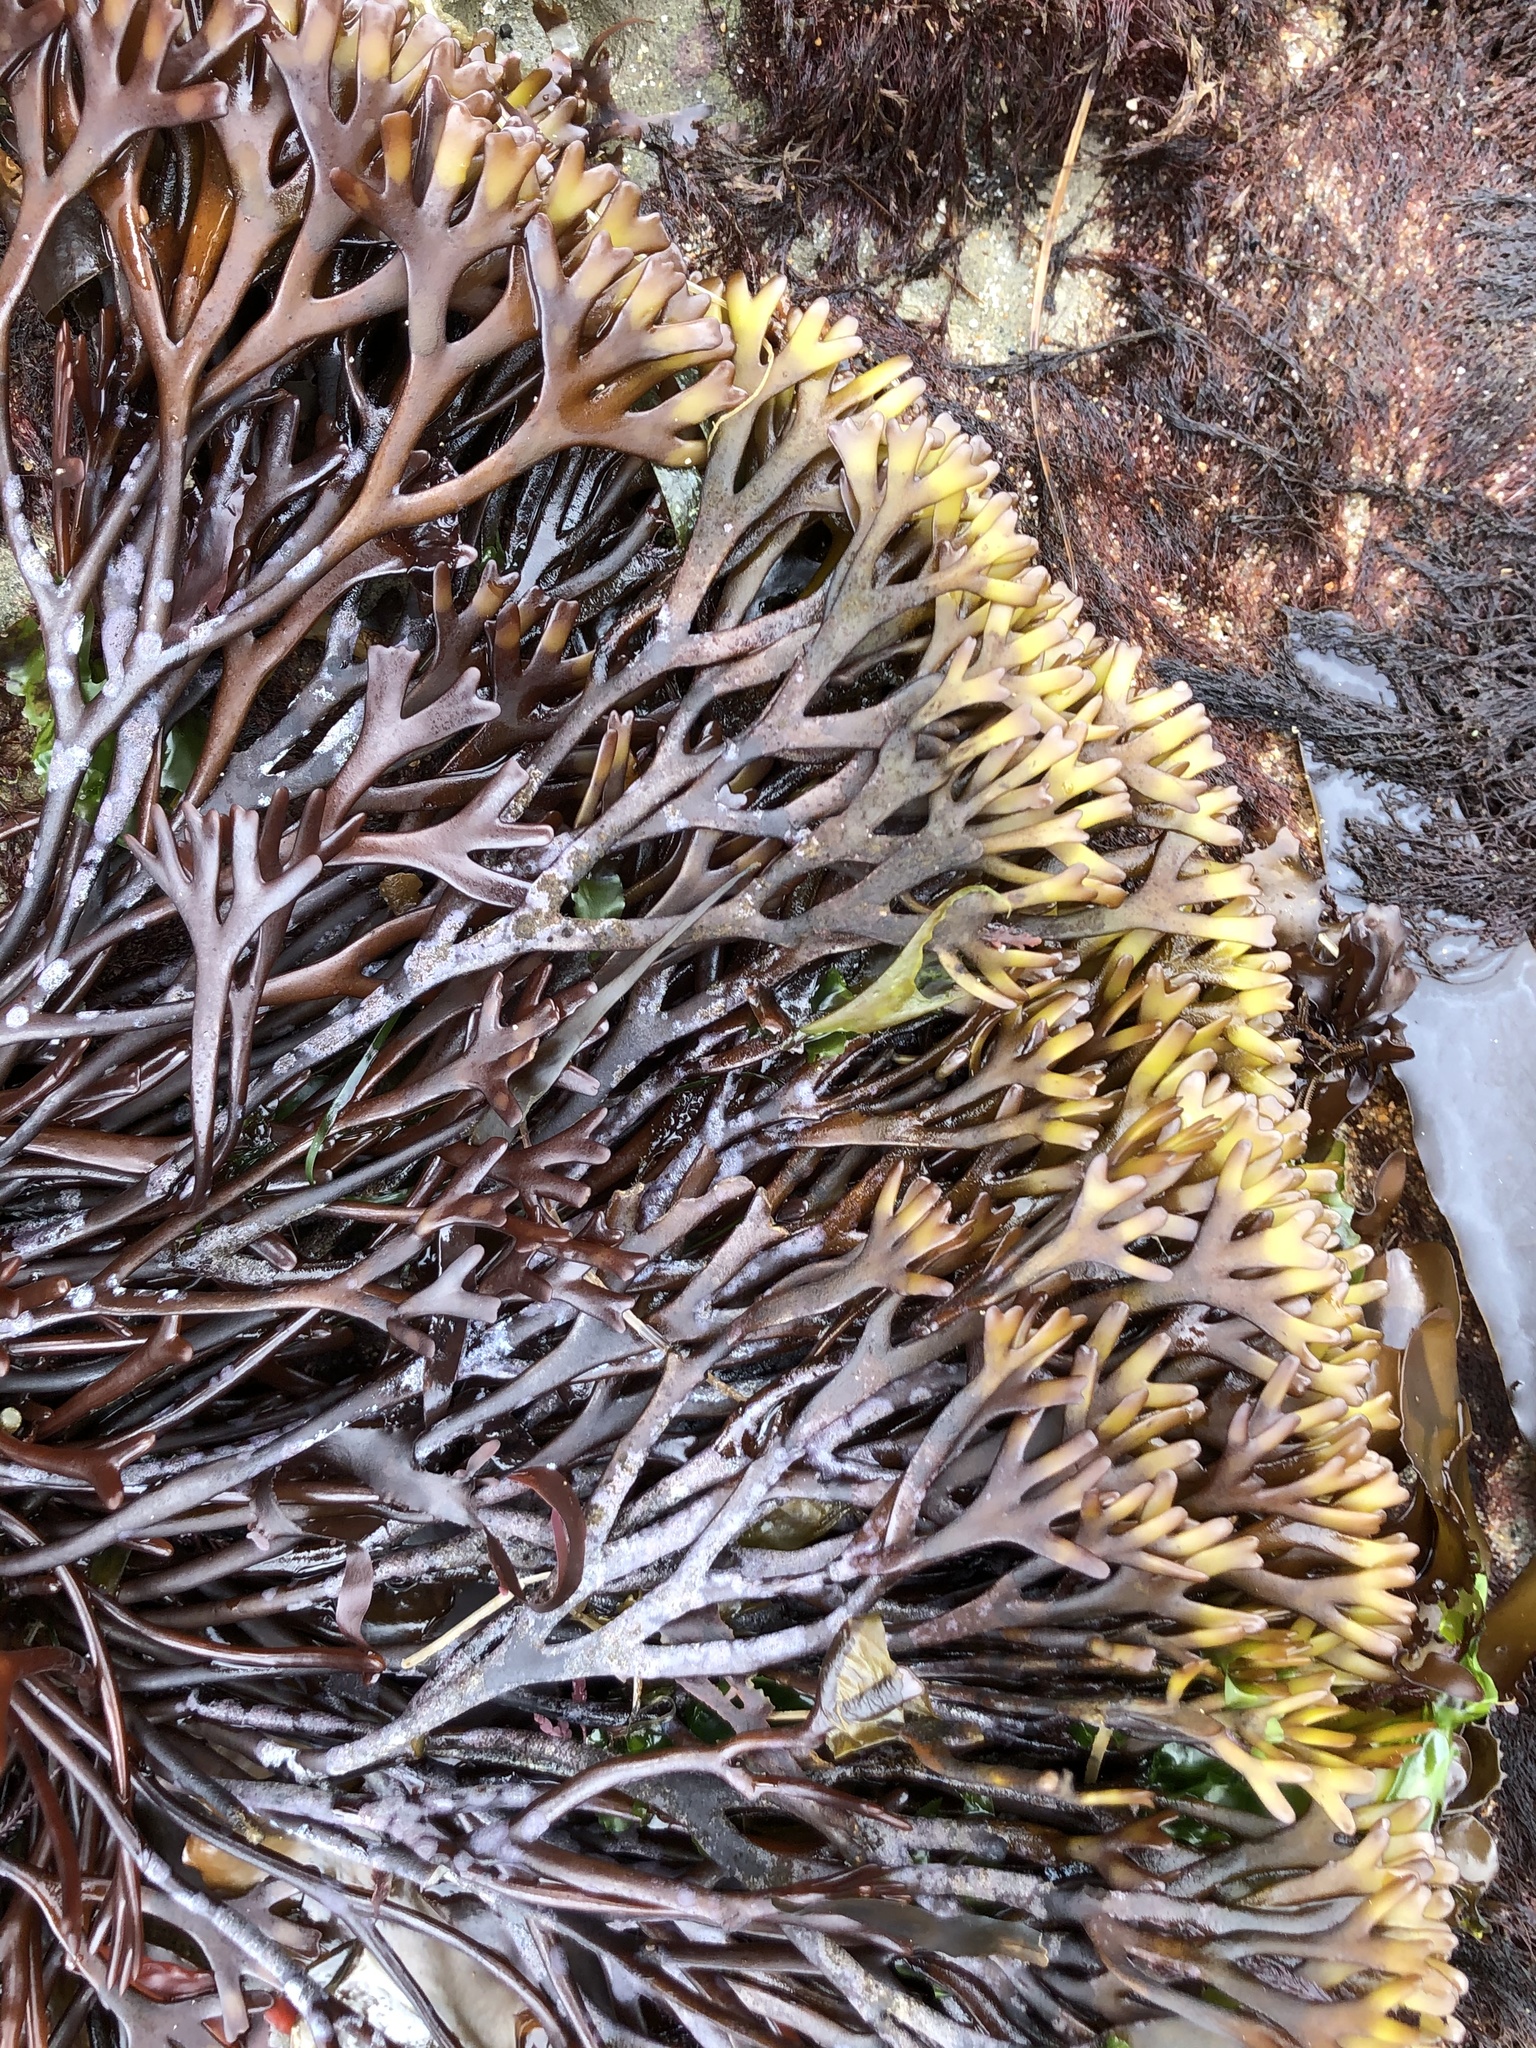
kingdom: Plantae
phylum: Rhodophyta
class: Florideophyceae
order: Gigartinales
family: Phyllophoraceae
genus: Ahnfeltiopsis
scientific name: Ahnfeltiopsis linearis
